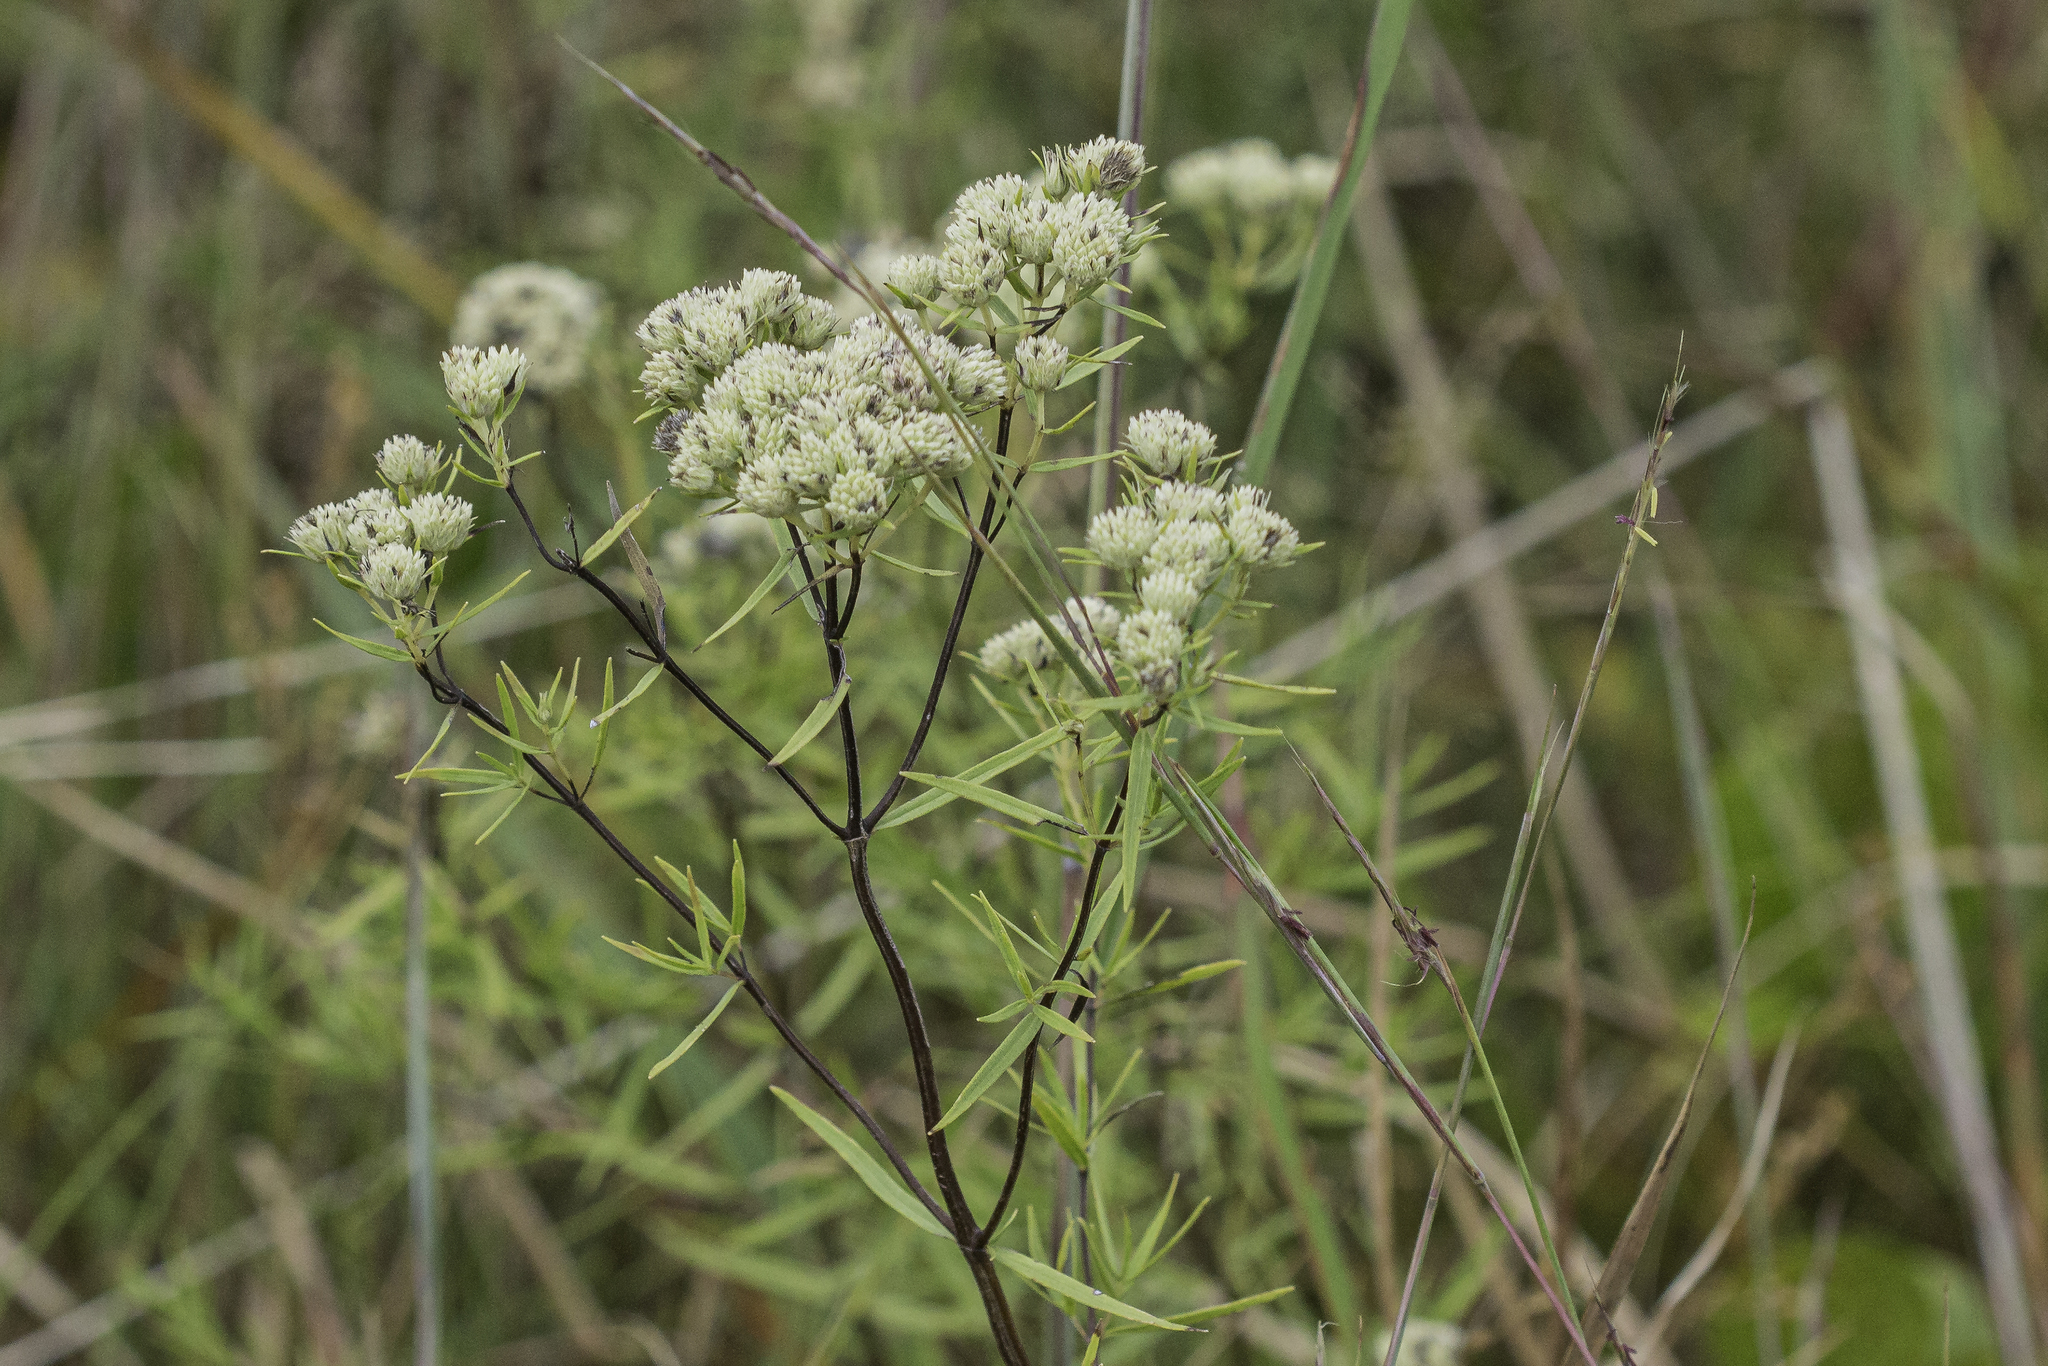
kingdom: Plantae
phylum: Tracheophyta
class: Magnoliopsida
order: Lamiales
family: Lamiaceae
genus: Pycnanthemum
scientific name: Pycnanthemum tenuifolium
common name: Narrow-leaf mountain-mint
